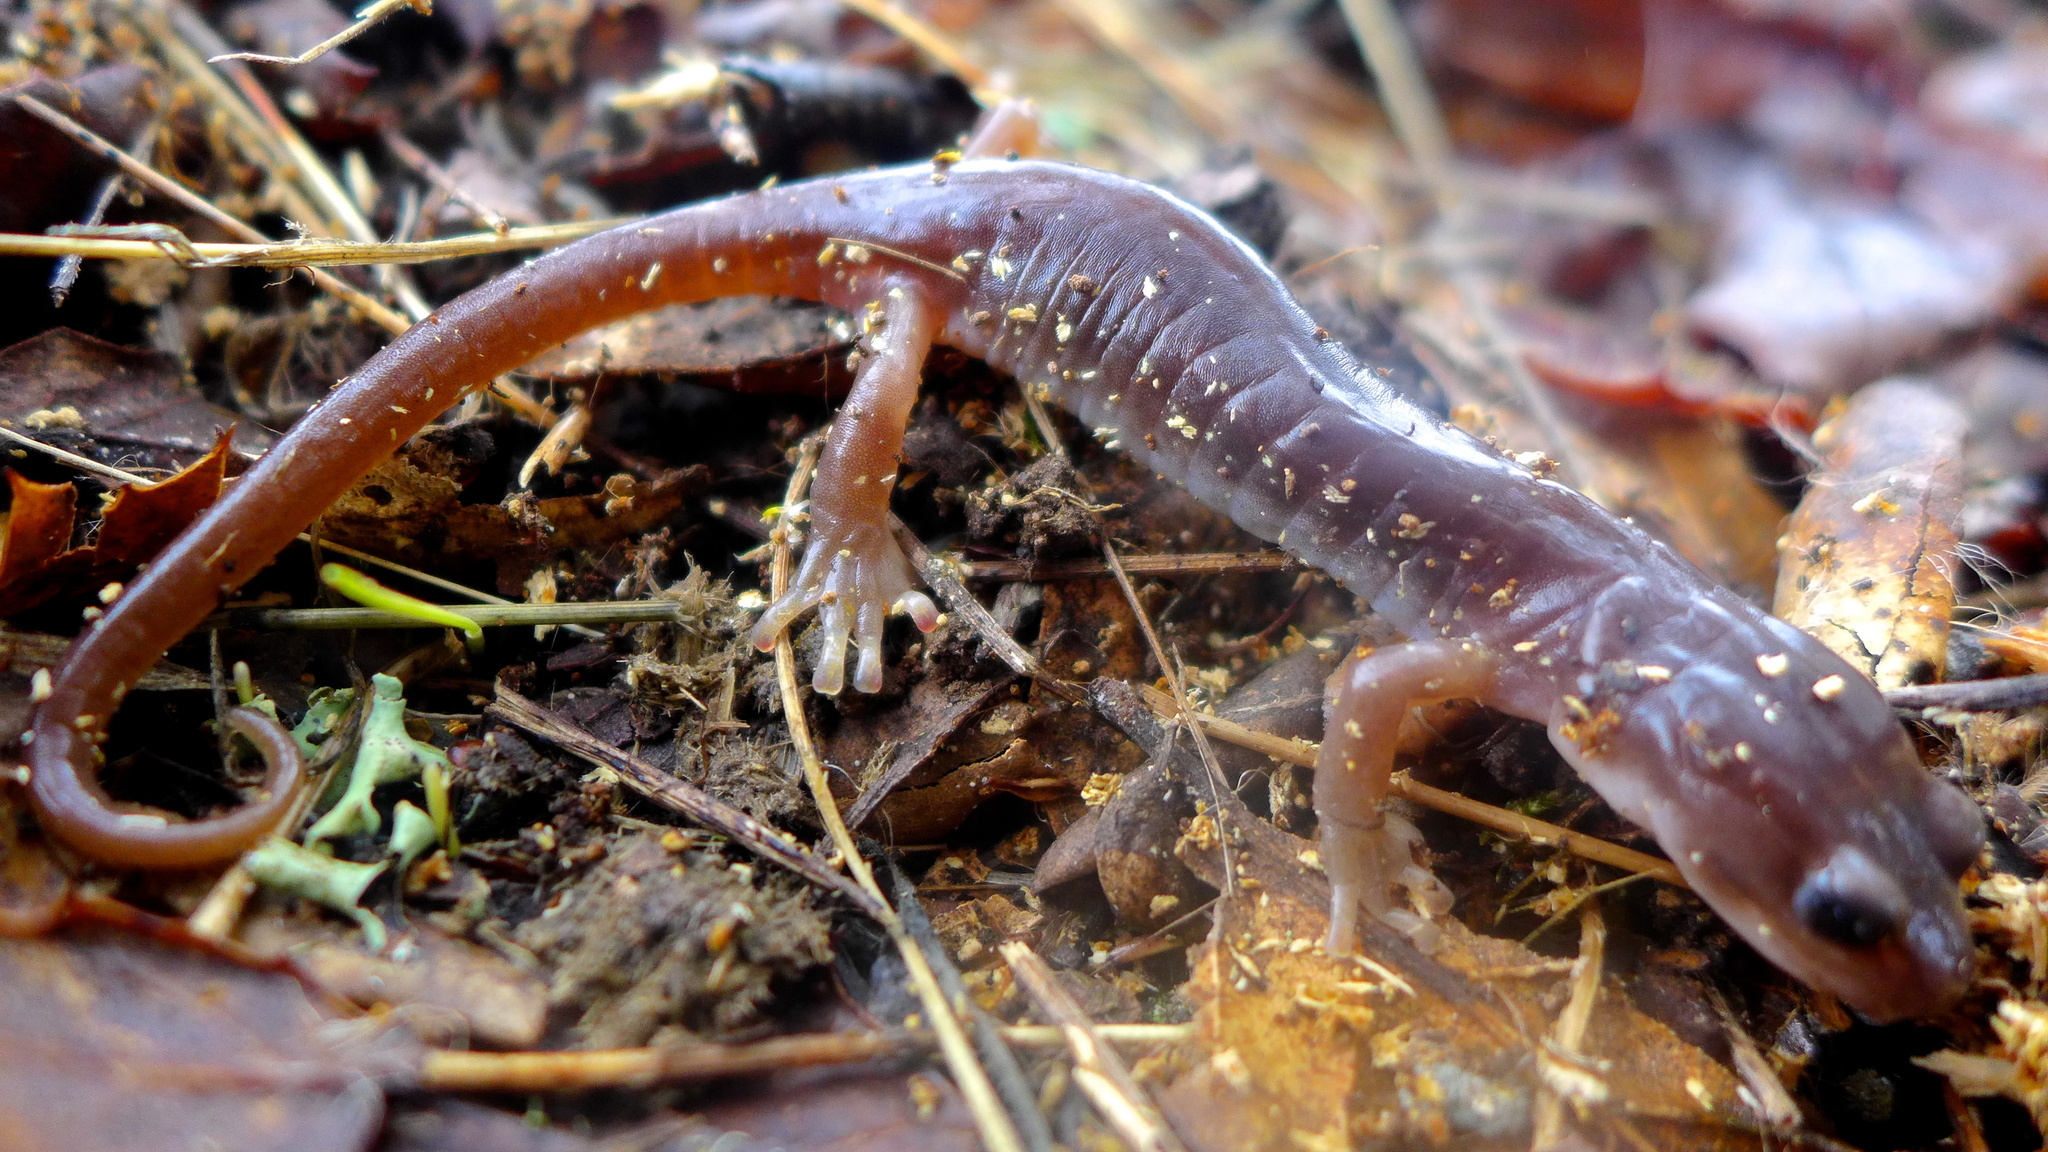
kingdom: Animalia
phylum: Chordata
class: Amphibia
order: Caudata
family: Plethodontidae
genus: Aneides
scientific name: Aneides lugubris
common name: Arboreal salamander
